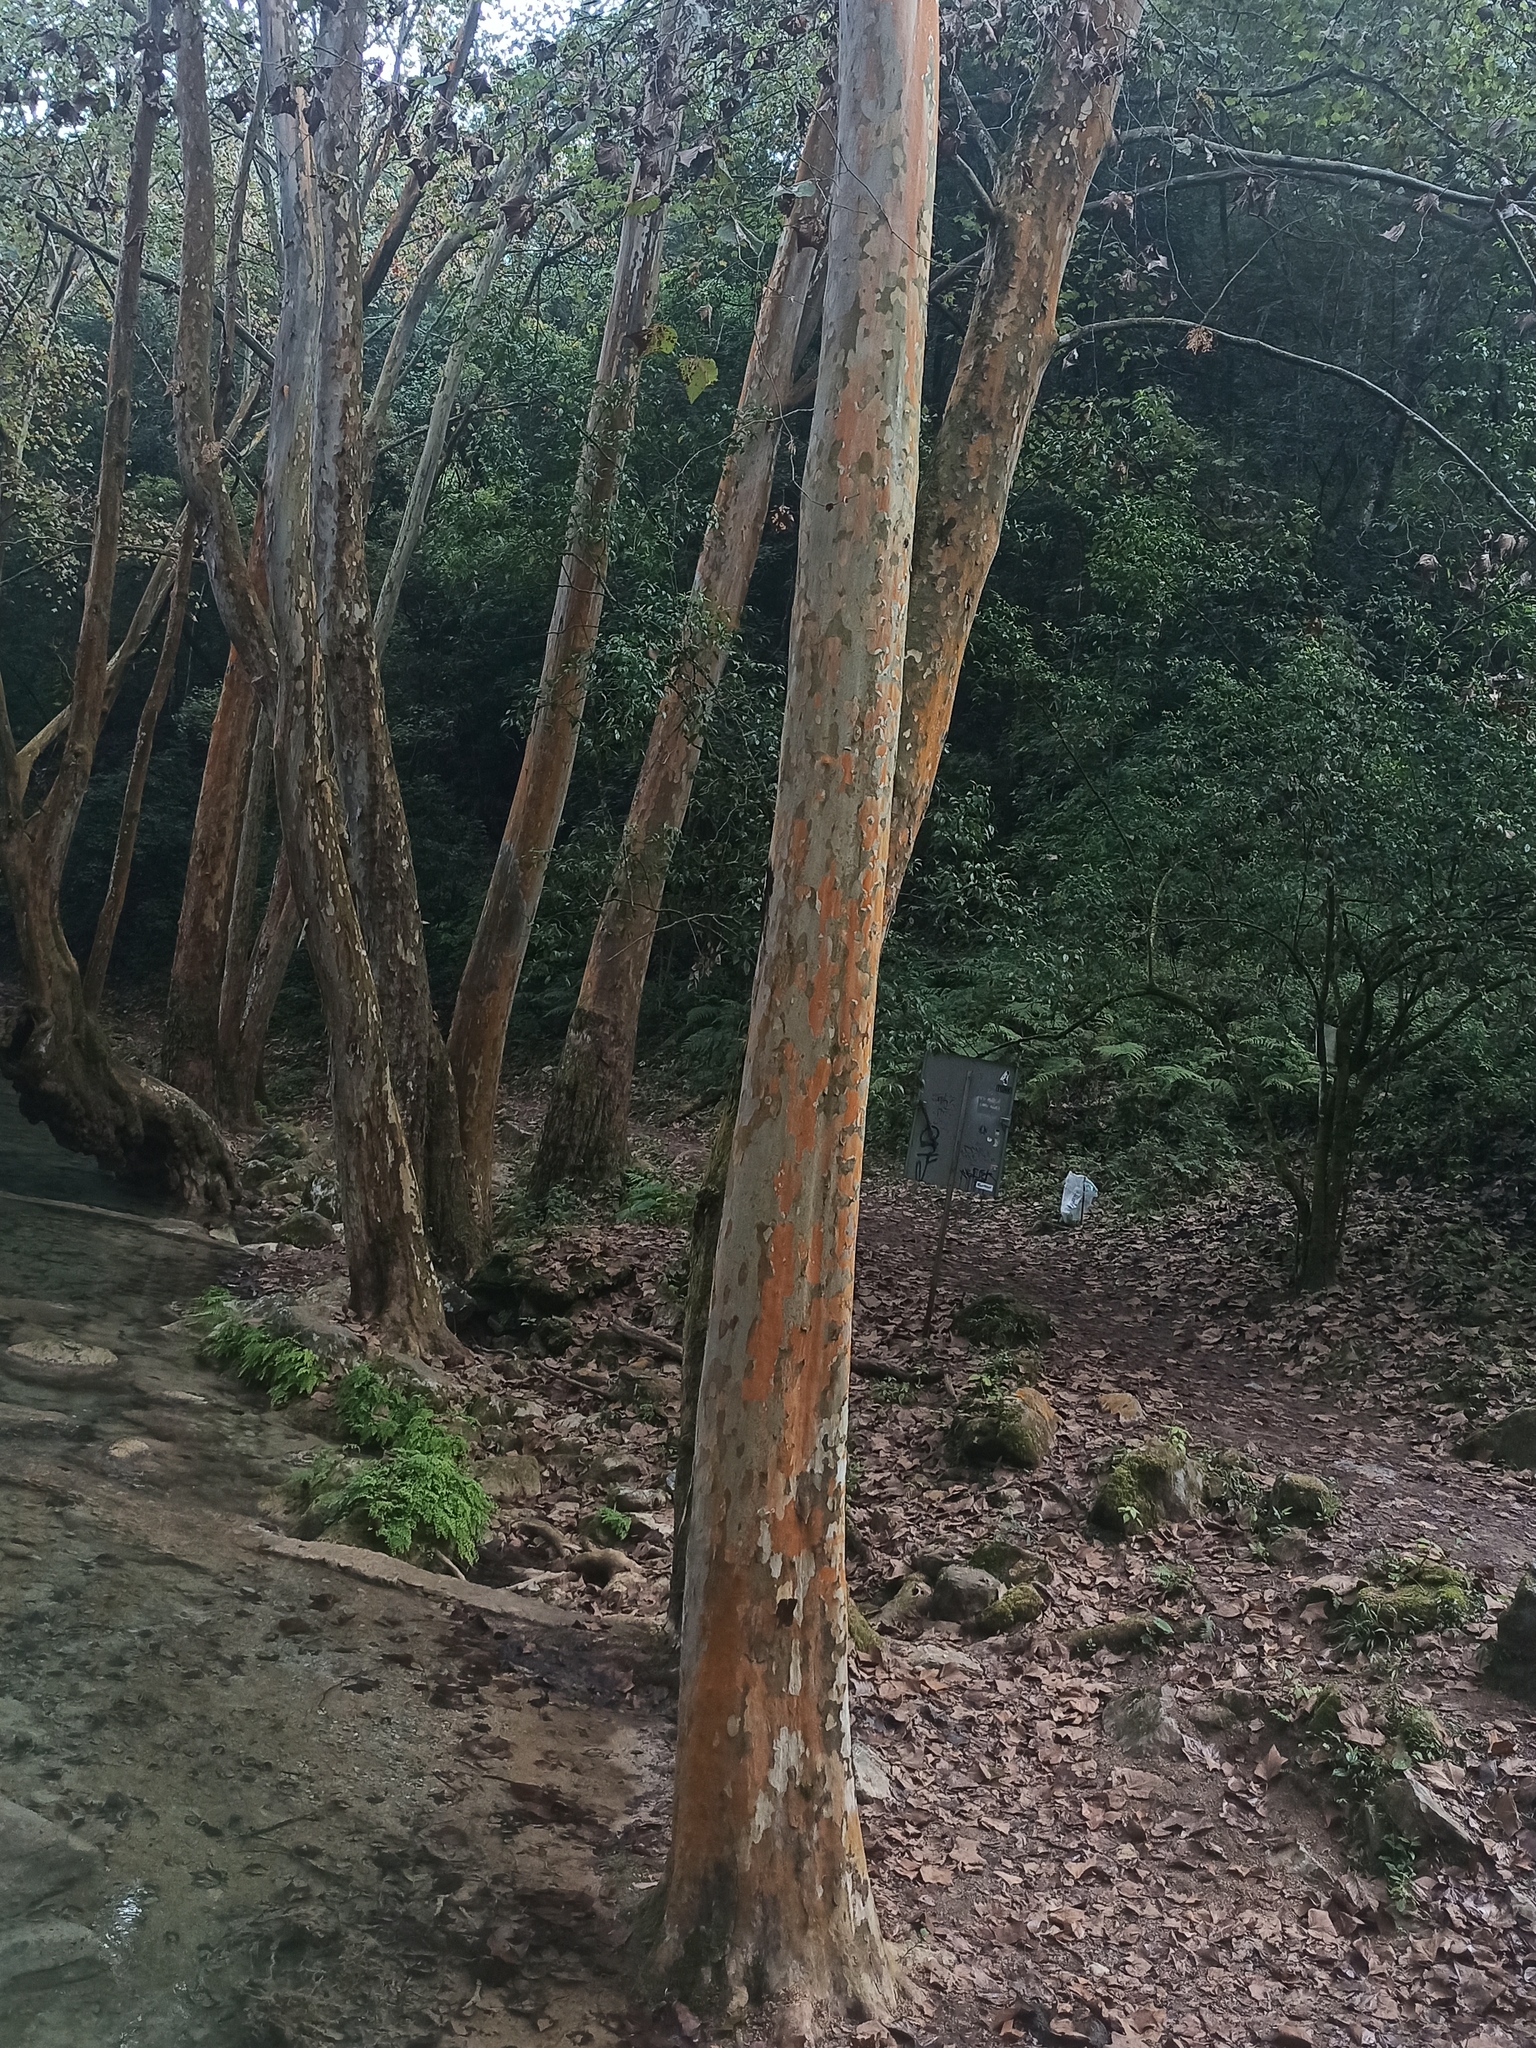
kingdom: Plantae
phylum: Tracheophyta
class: Magnoliopsida
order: Proteales
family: Platanaceae
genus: Platanus
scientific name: Platanus mexicana
